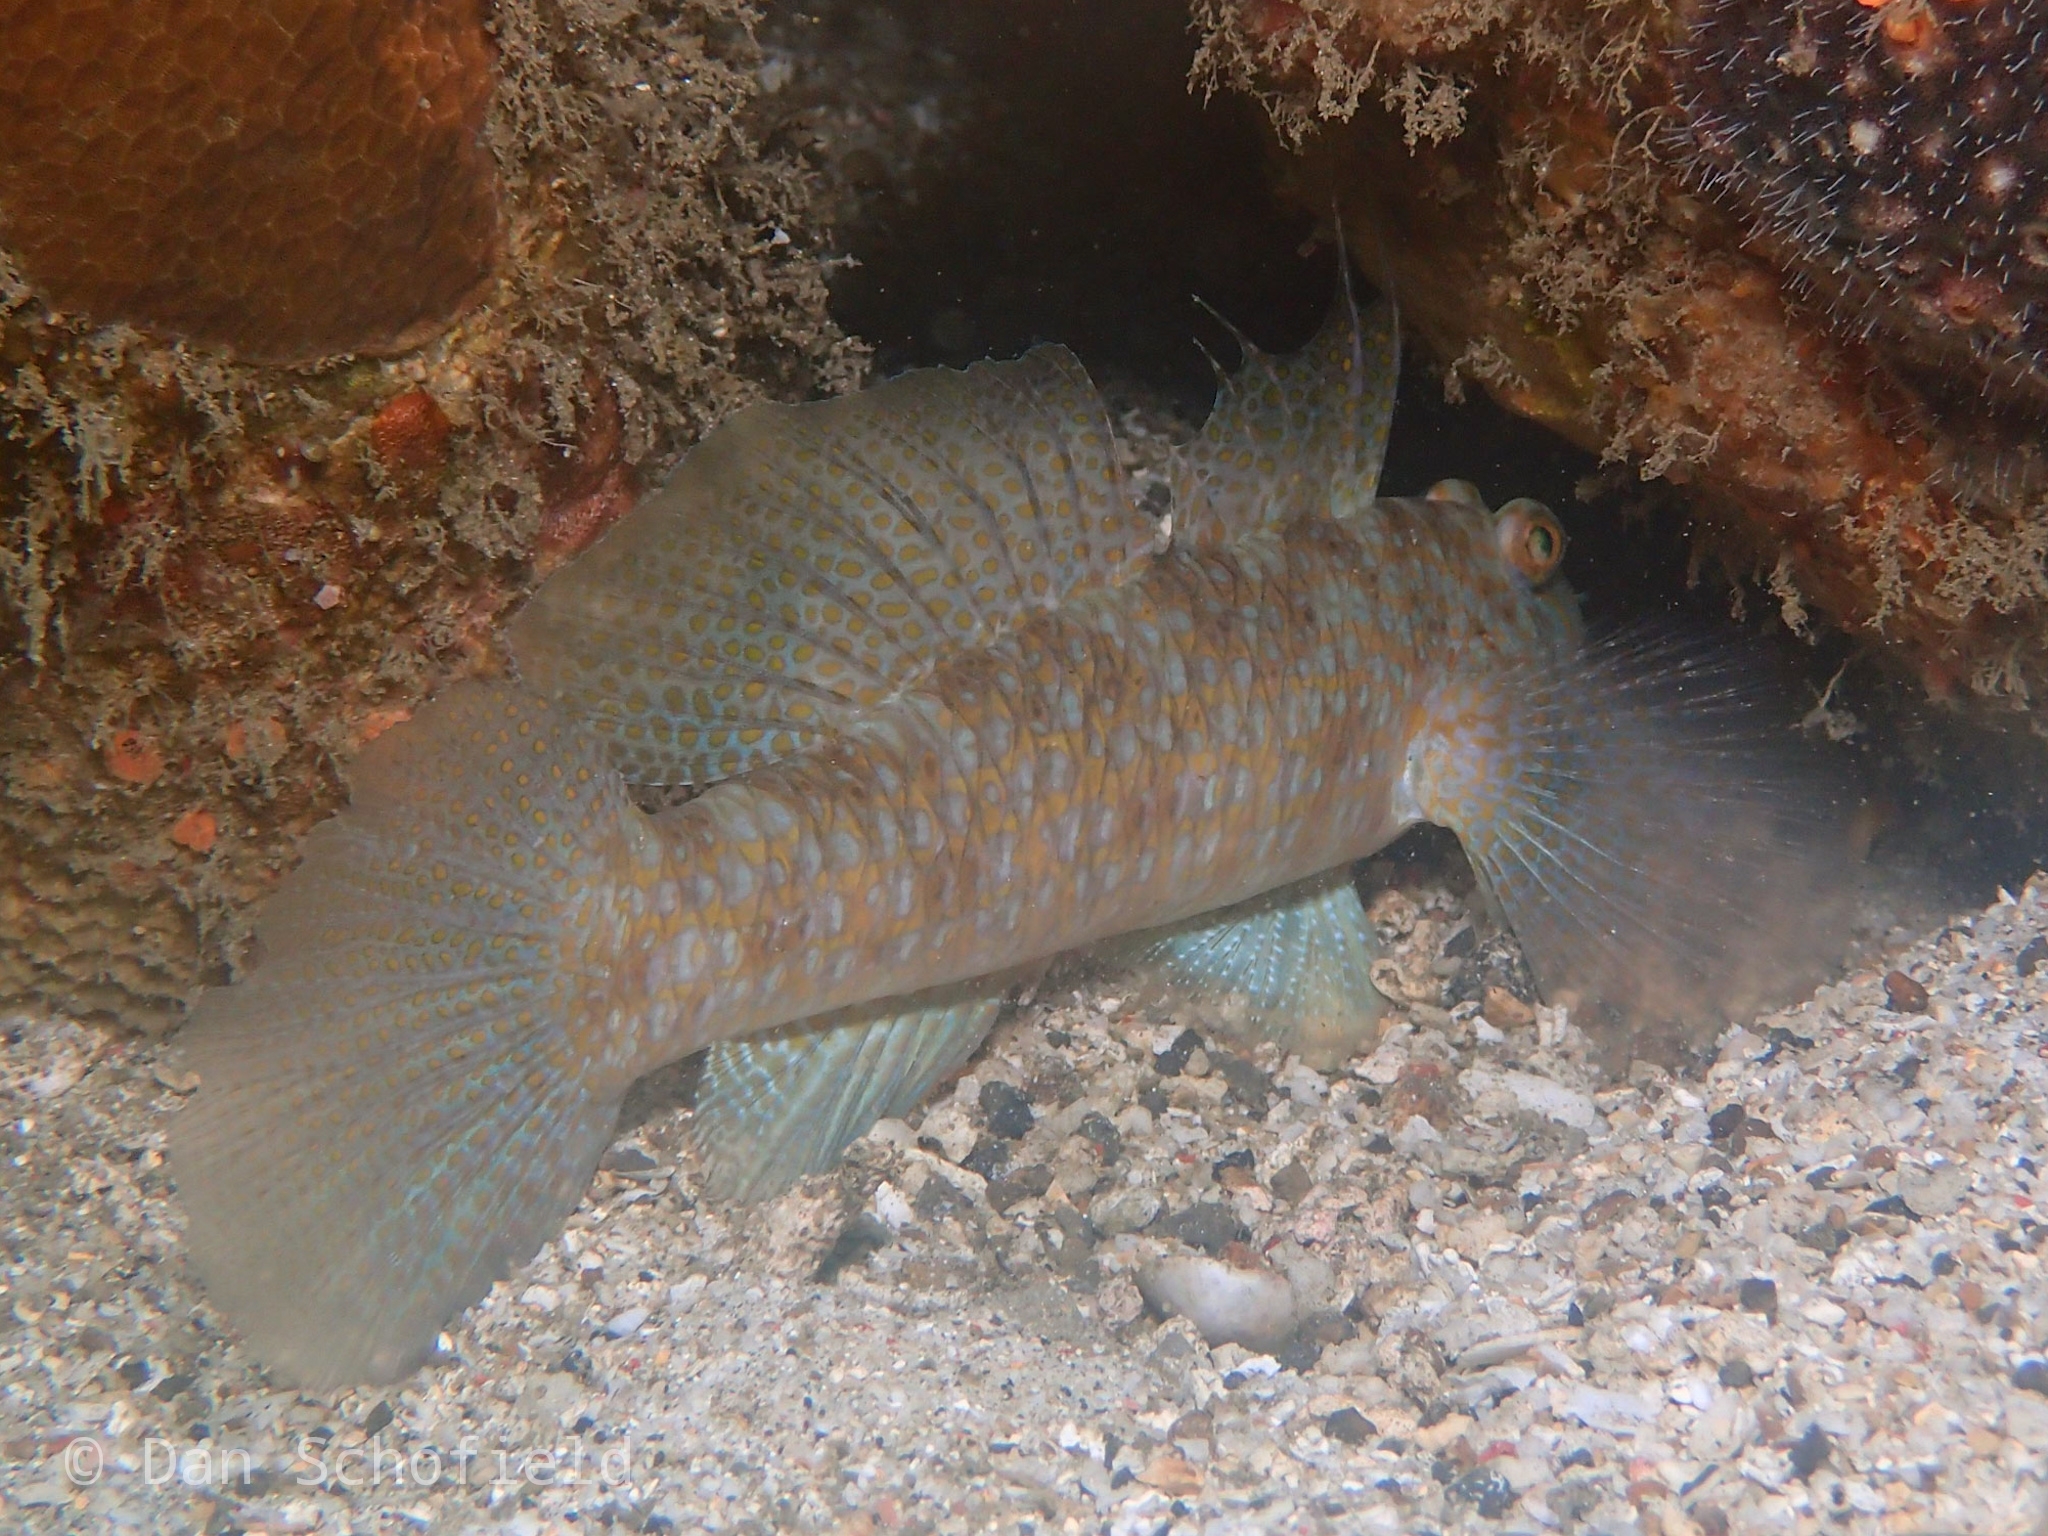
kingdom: Animalia
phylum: Chordata
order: Perciformes
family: Gobiidae
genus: Exyrias
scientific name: Exyrias akihito
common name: Akihito's goby
